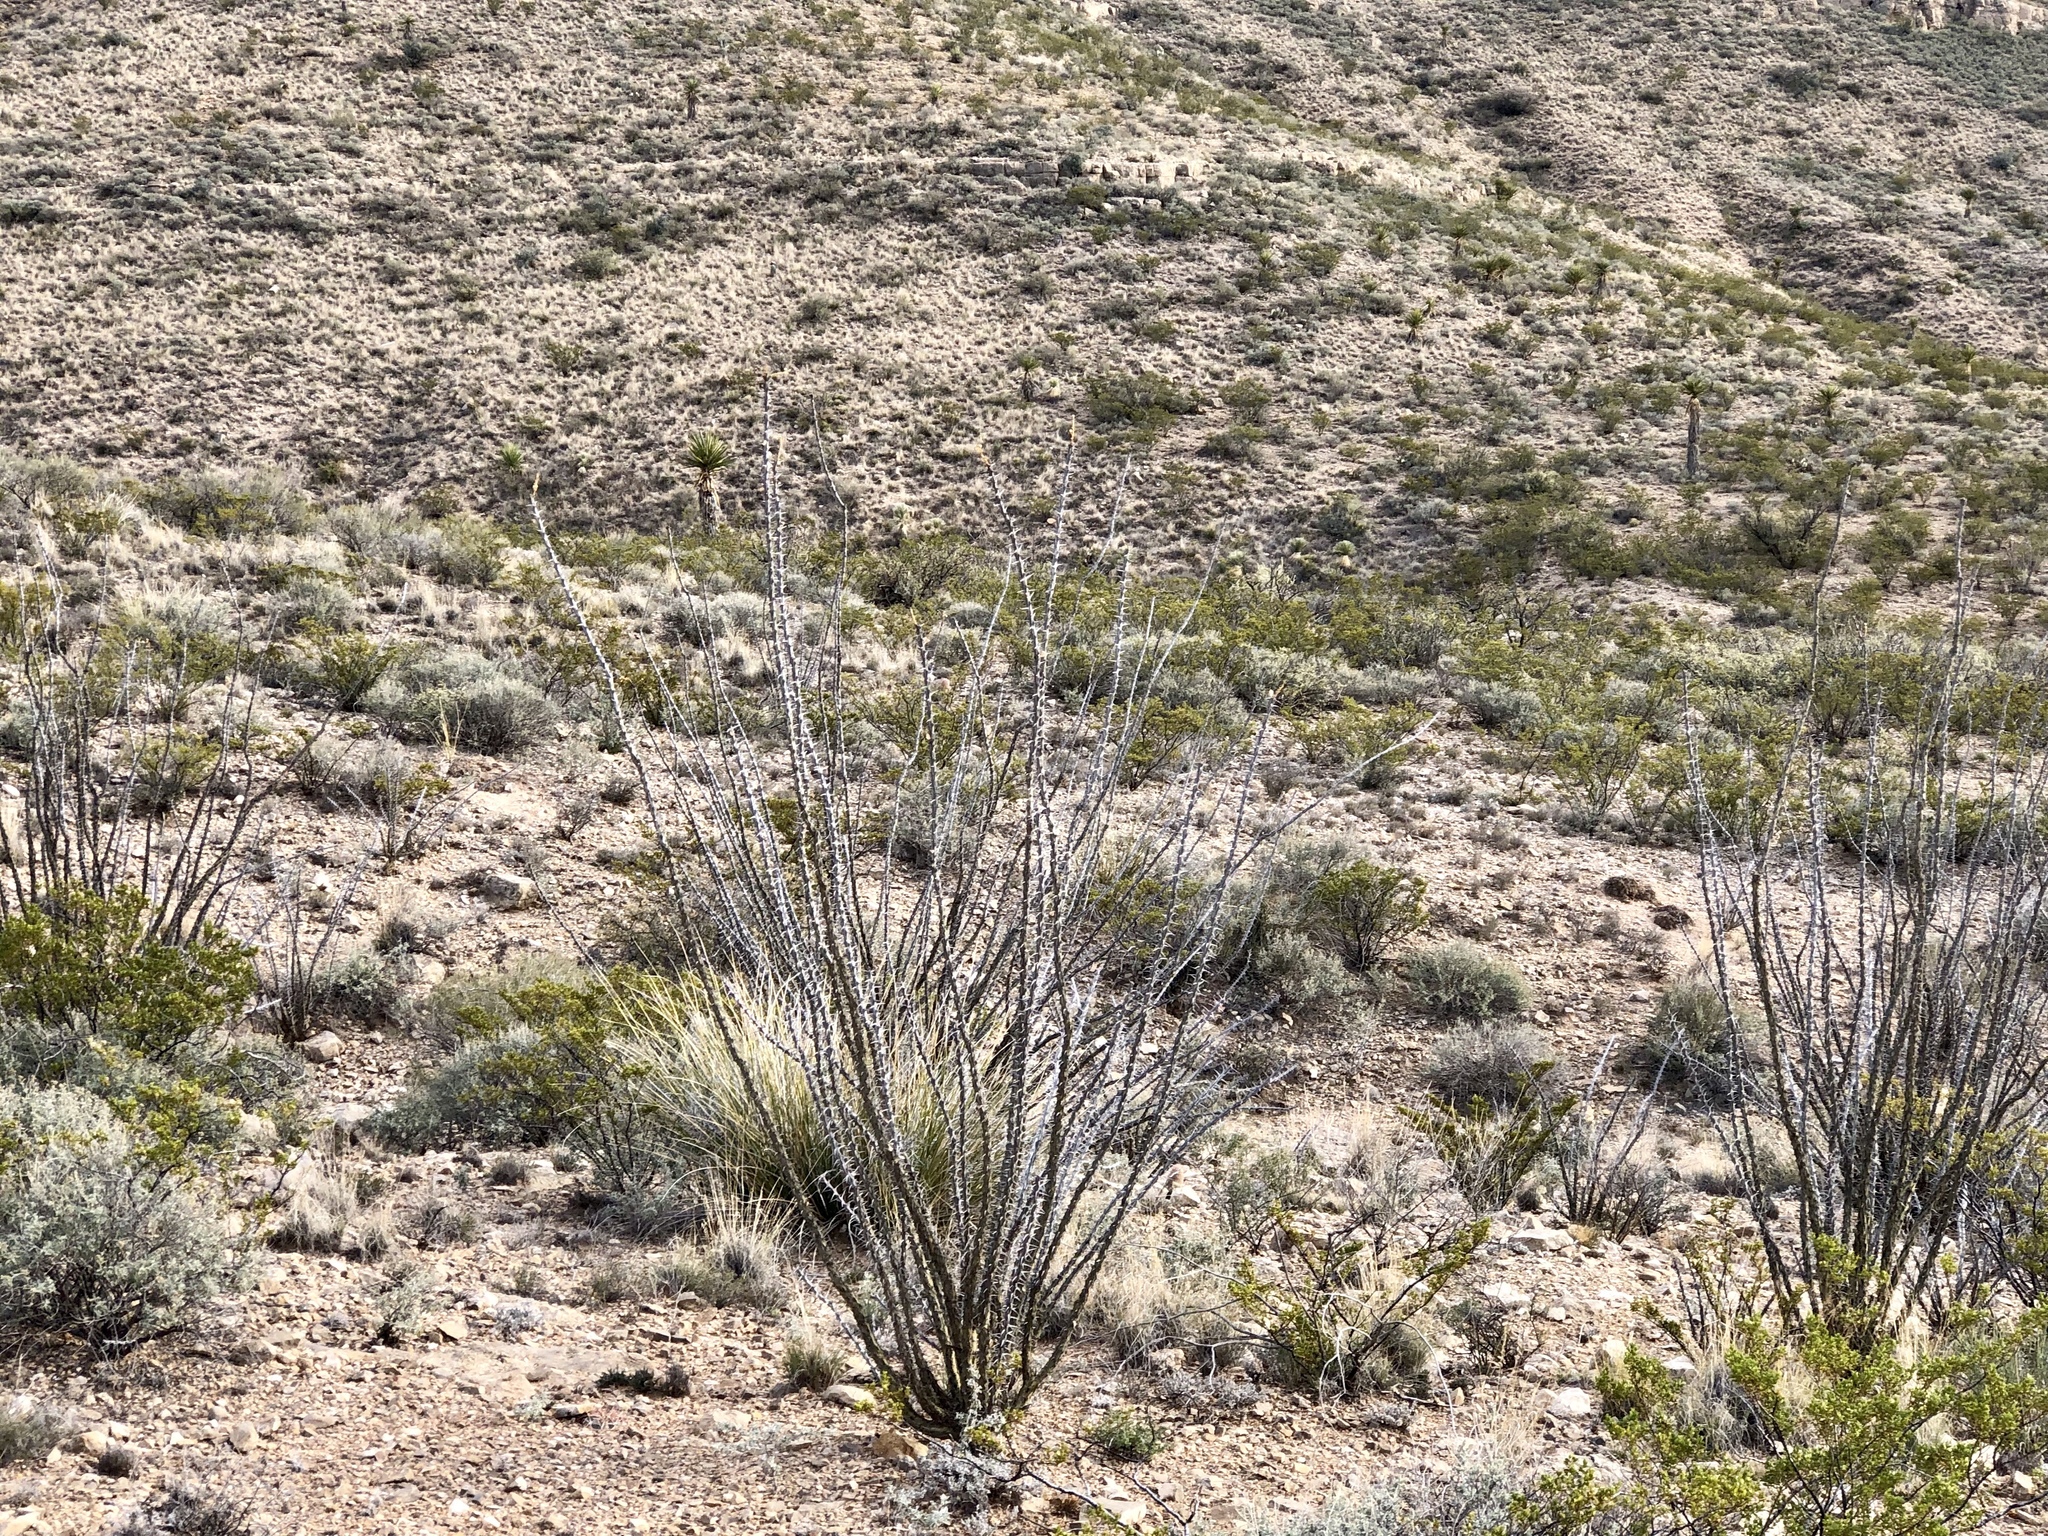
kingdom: Plantae
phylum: Tracheophyta
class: Magnoliopsida
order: Ericales
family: Fouquieriaceae
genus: Fouquieria
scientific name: Fouquieria splendens
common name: Vine-cactus
